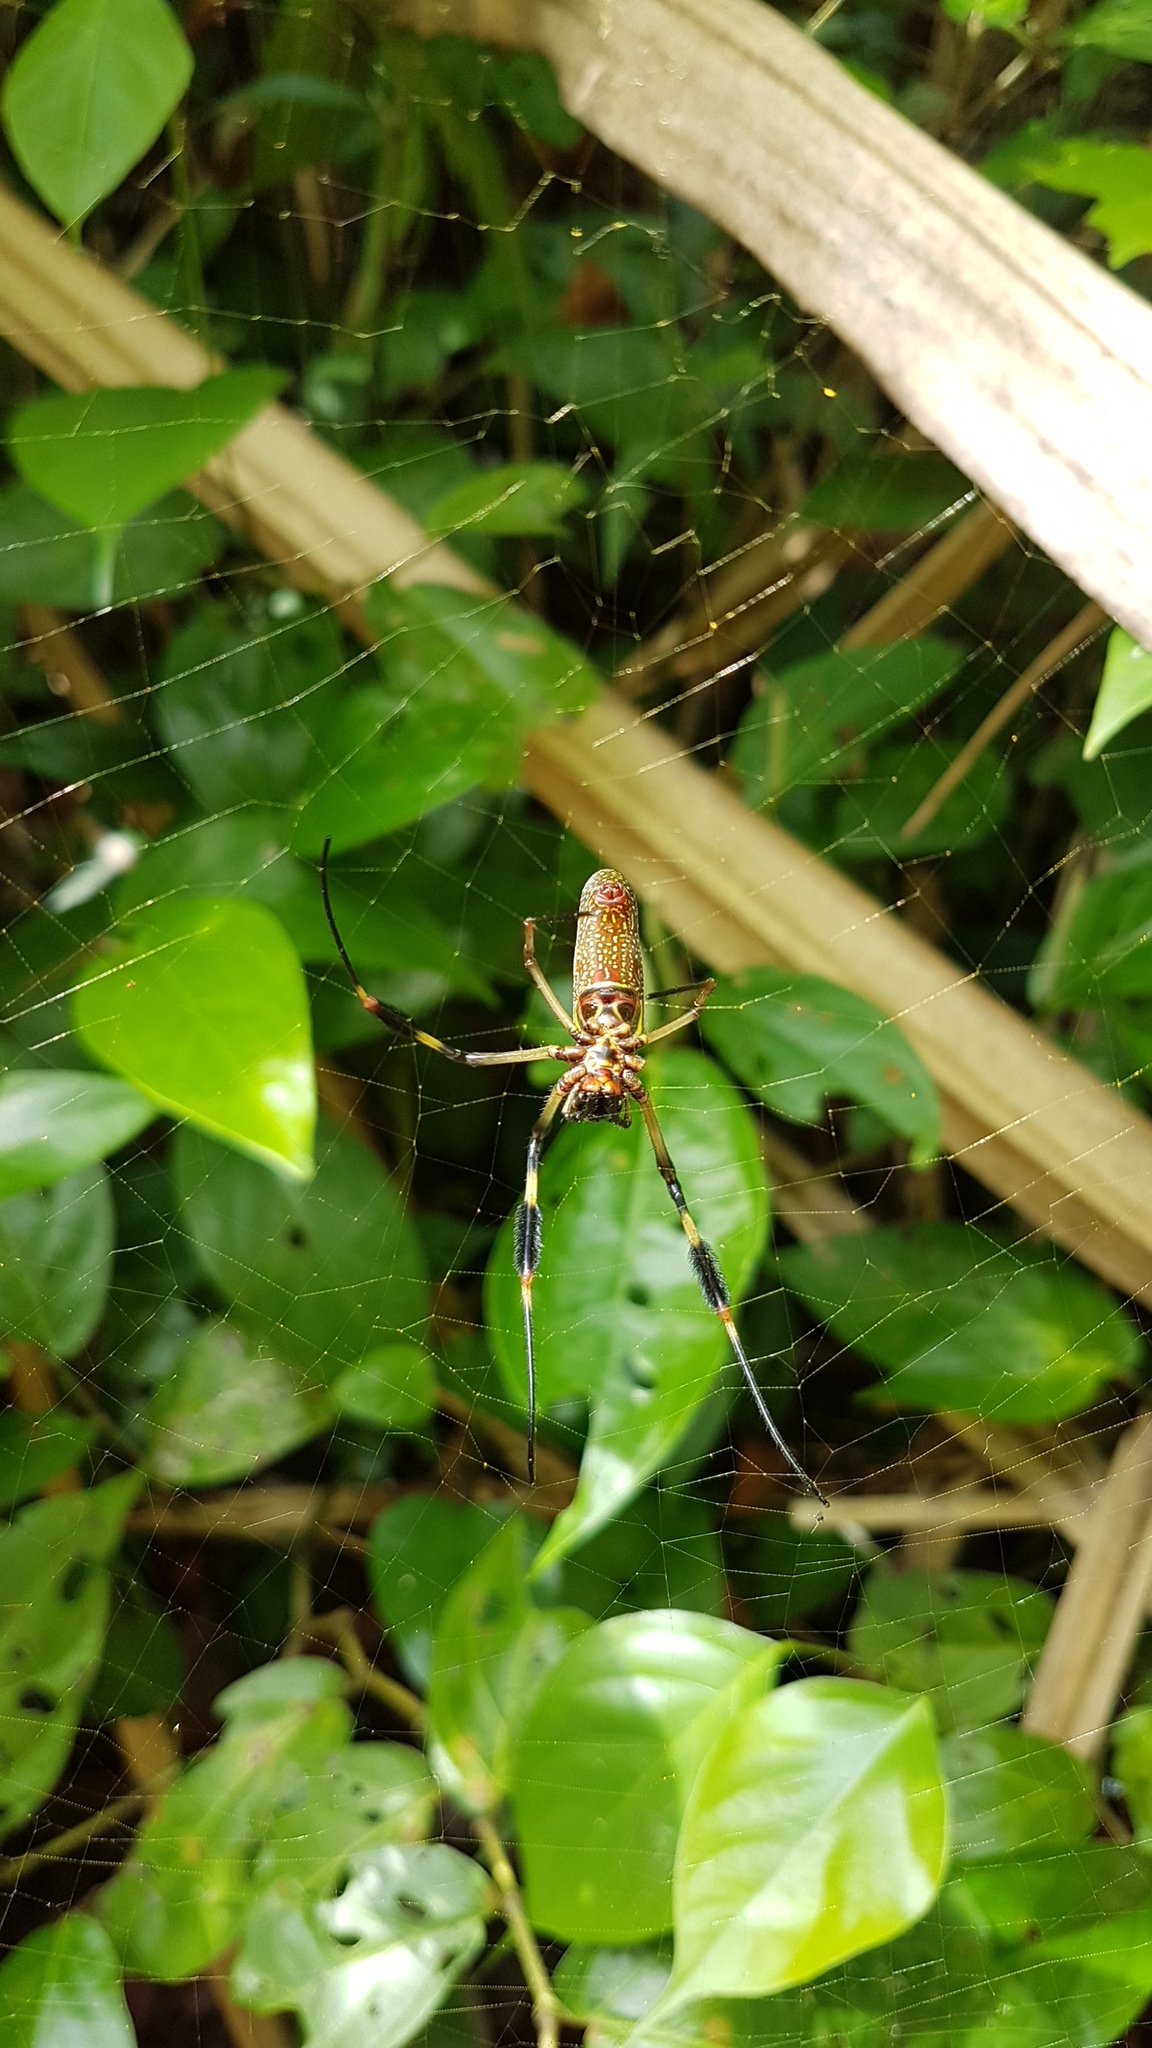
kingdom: Animalia
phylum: Arthropoda
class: Arachnida
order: Araneae
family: Araneidae
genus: Trichonephila
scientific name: Trichonephila clavipes
